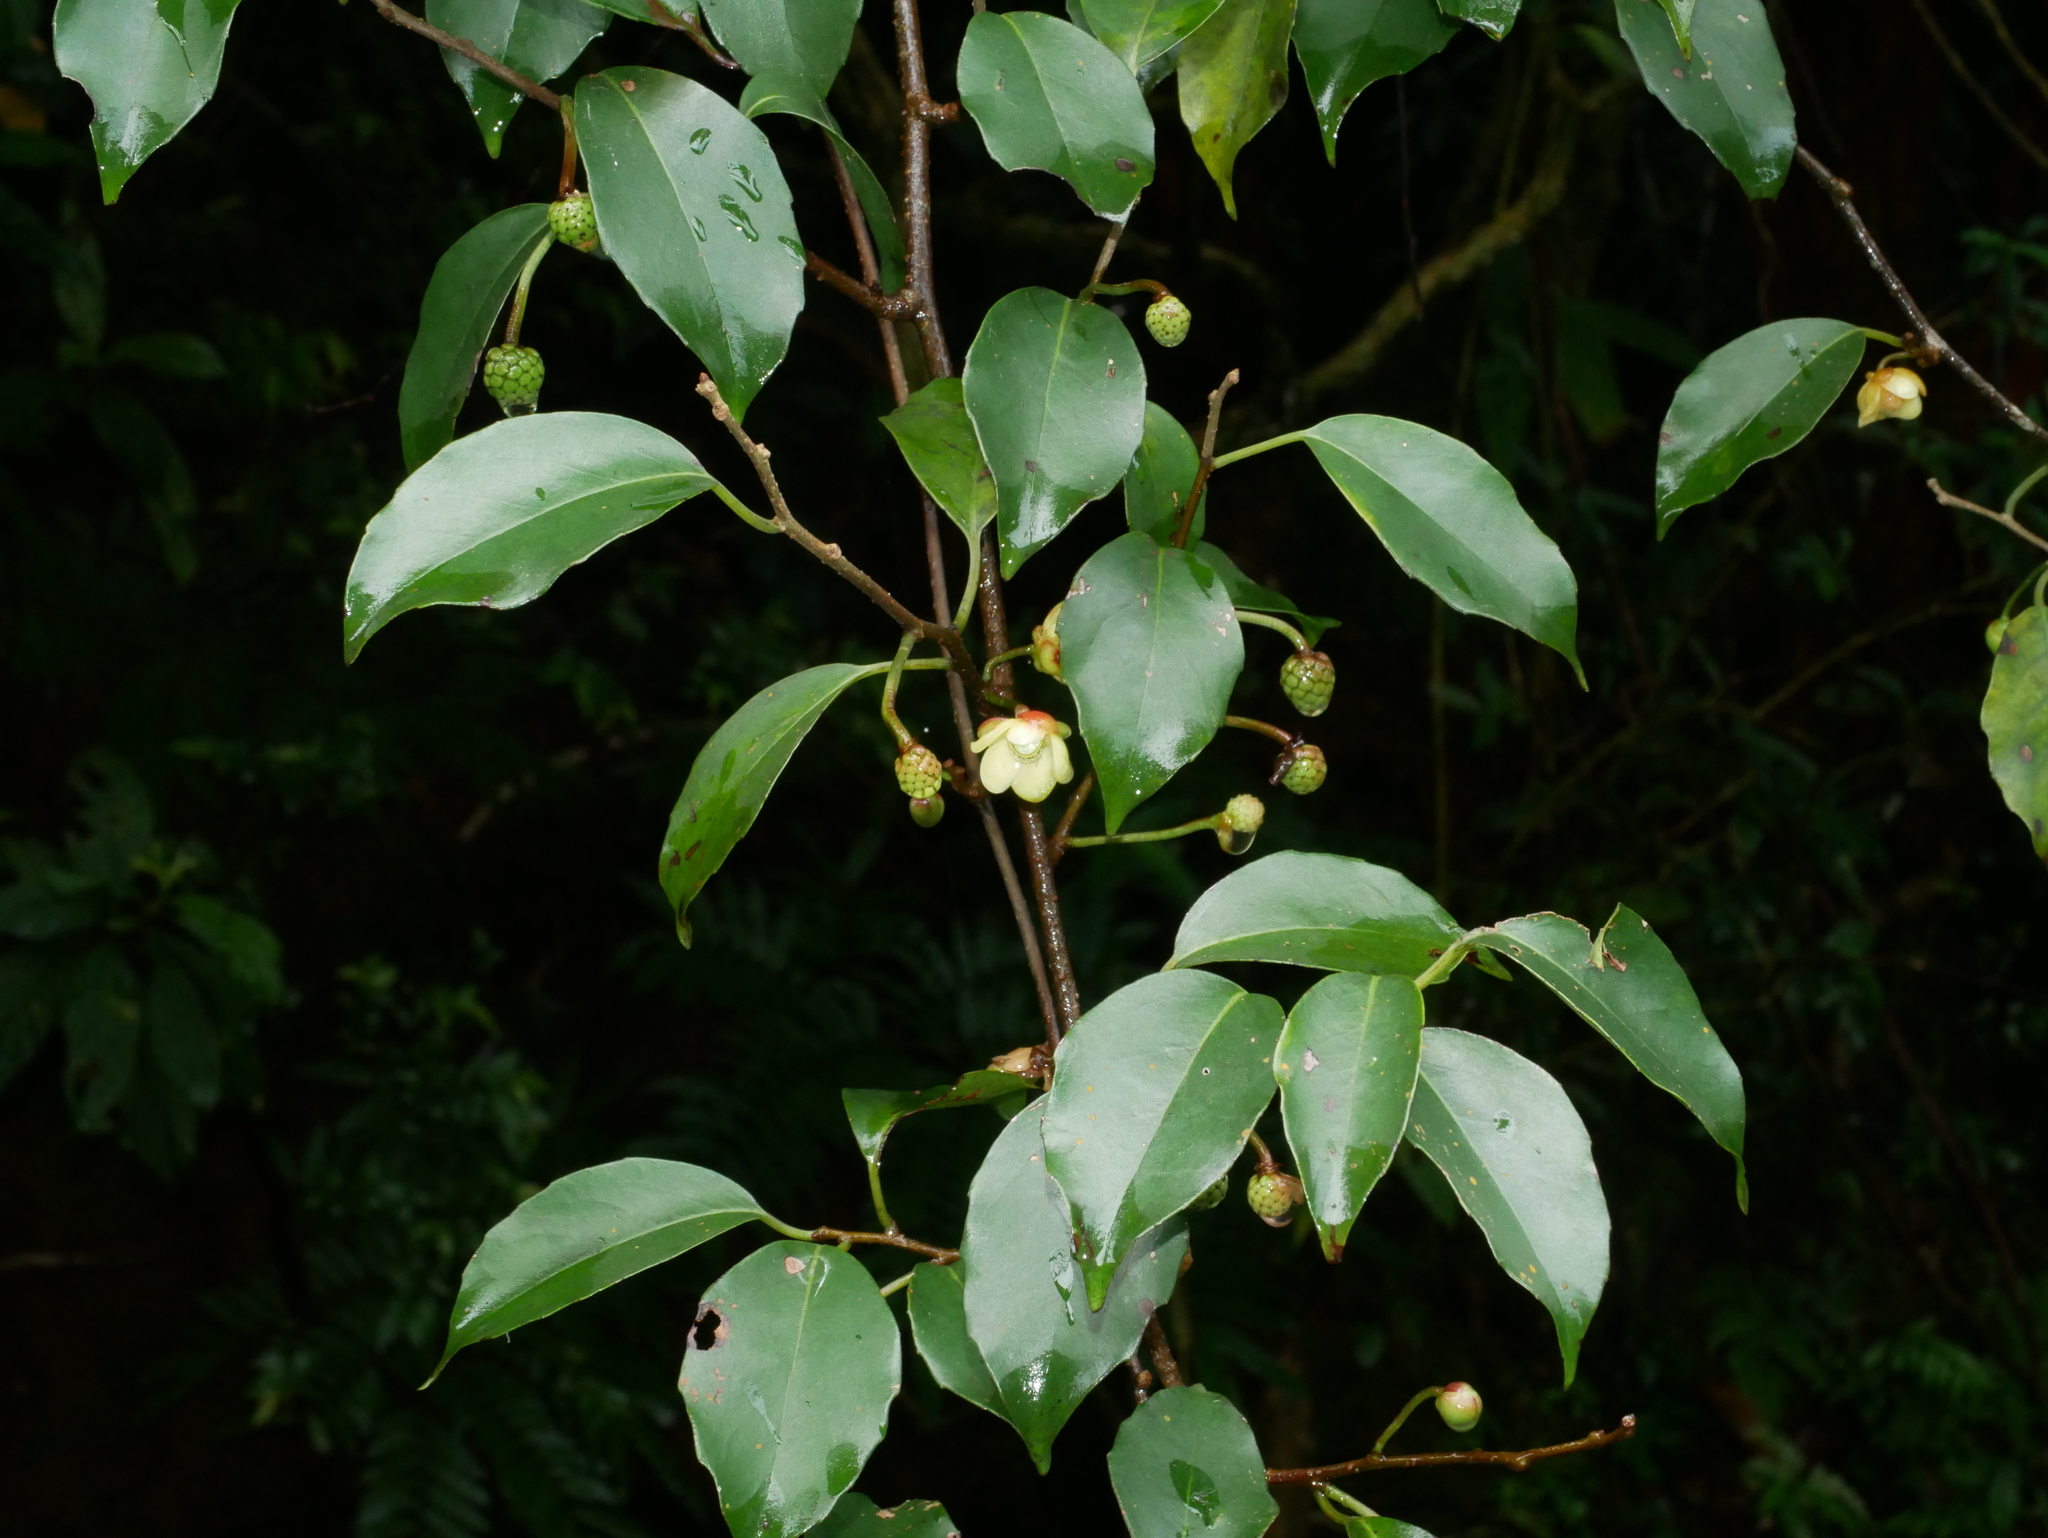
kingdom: Plantae
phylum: Tracheophyta
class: Magnoliopsida
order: Austrobaileyales
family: Schisandraceae
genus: Kadsura
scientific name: Kadsura matsudae
